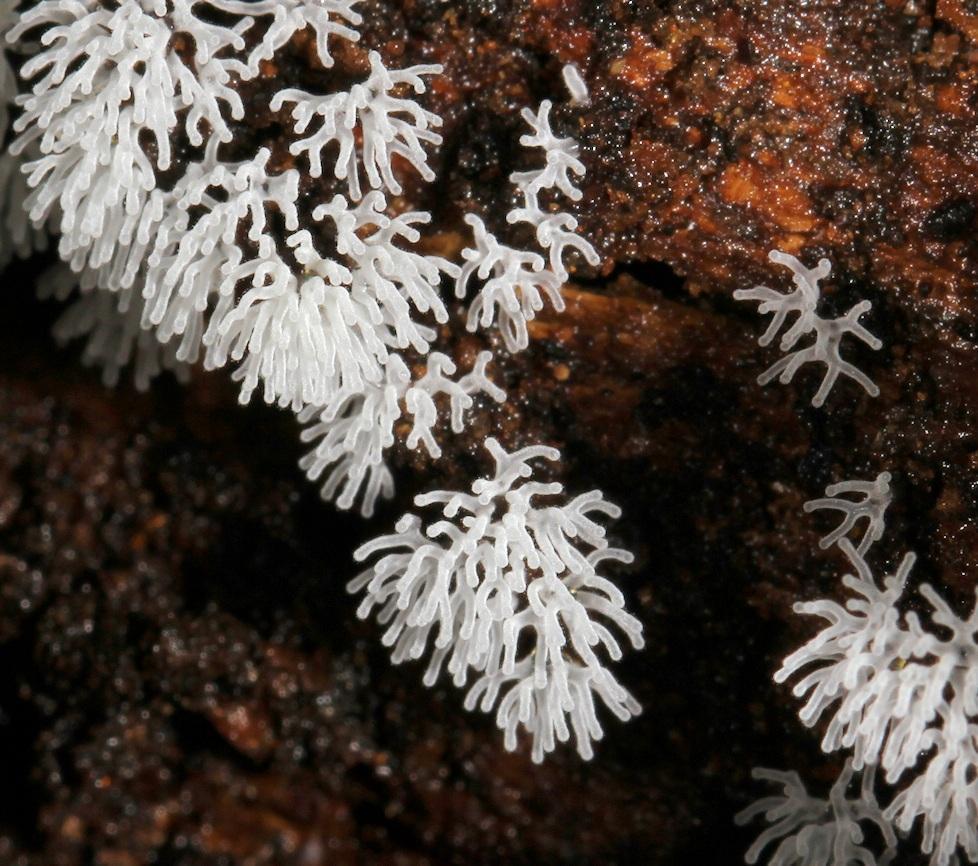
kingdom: Protozoa
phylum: Mycetozoa
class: Protosteliomycetes
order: Ceratiomyxales
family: Ceratiomyxaceae
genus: Ceratiomyxa
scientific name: Ceratiomyxa fruticulosa
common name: Honeycomb coral slime mold
